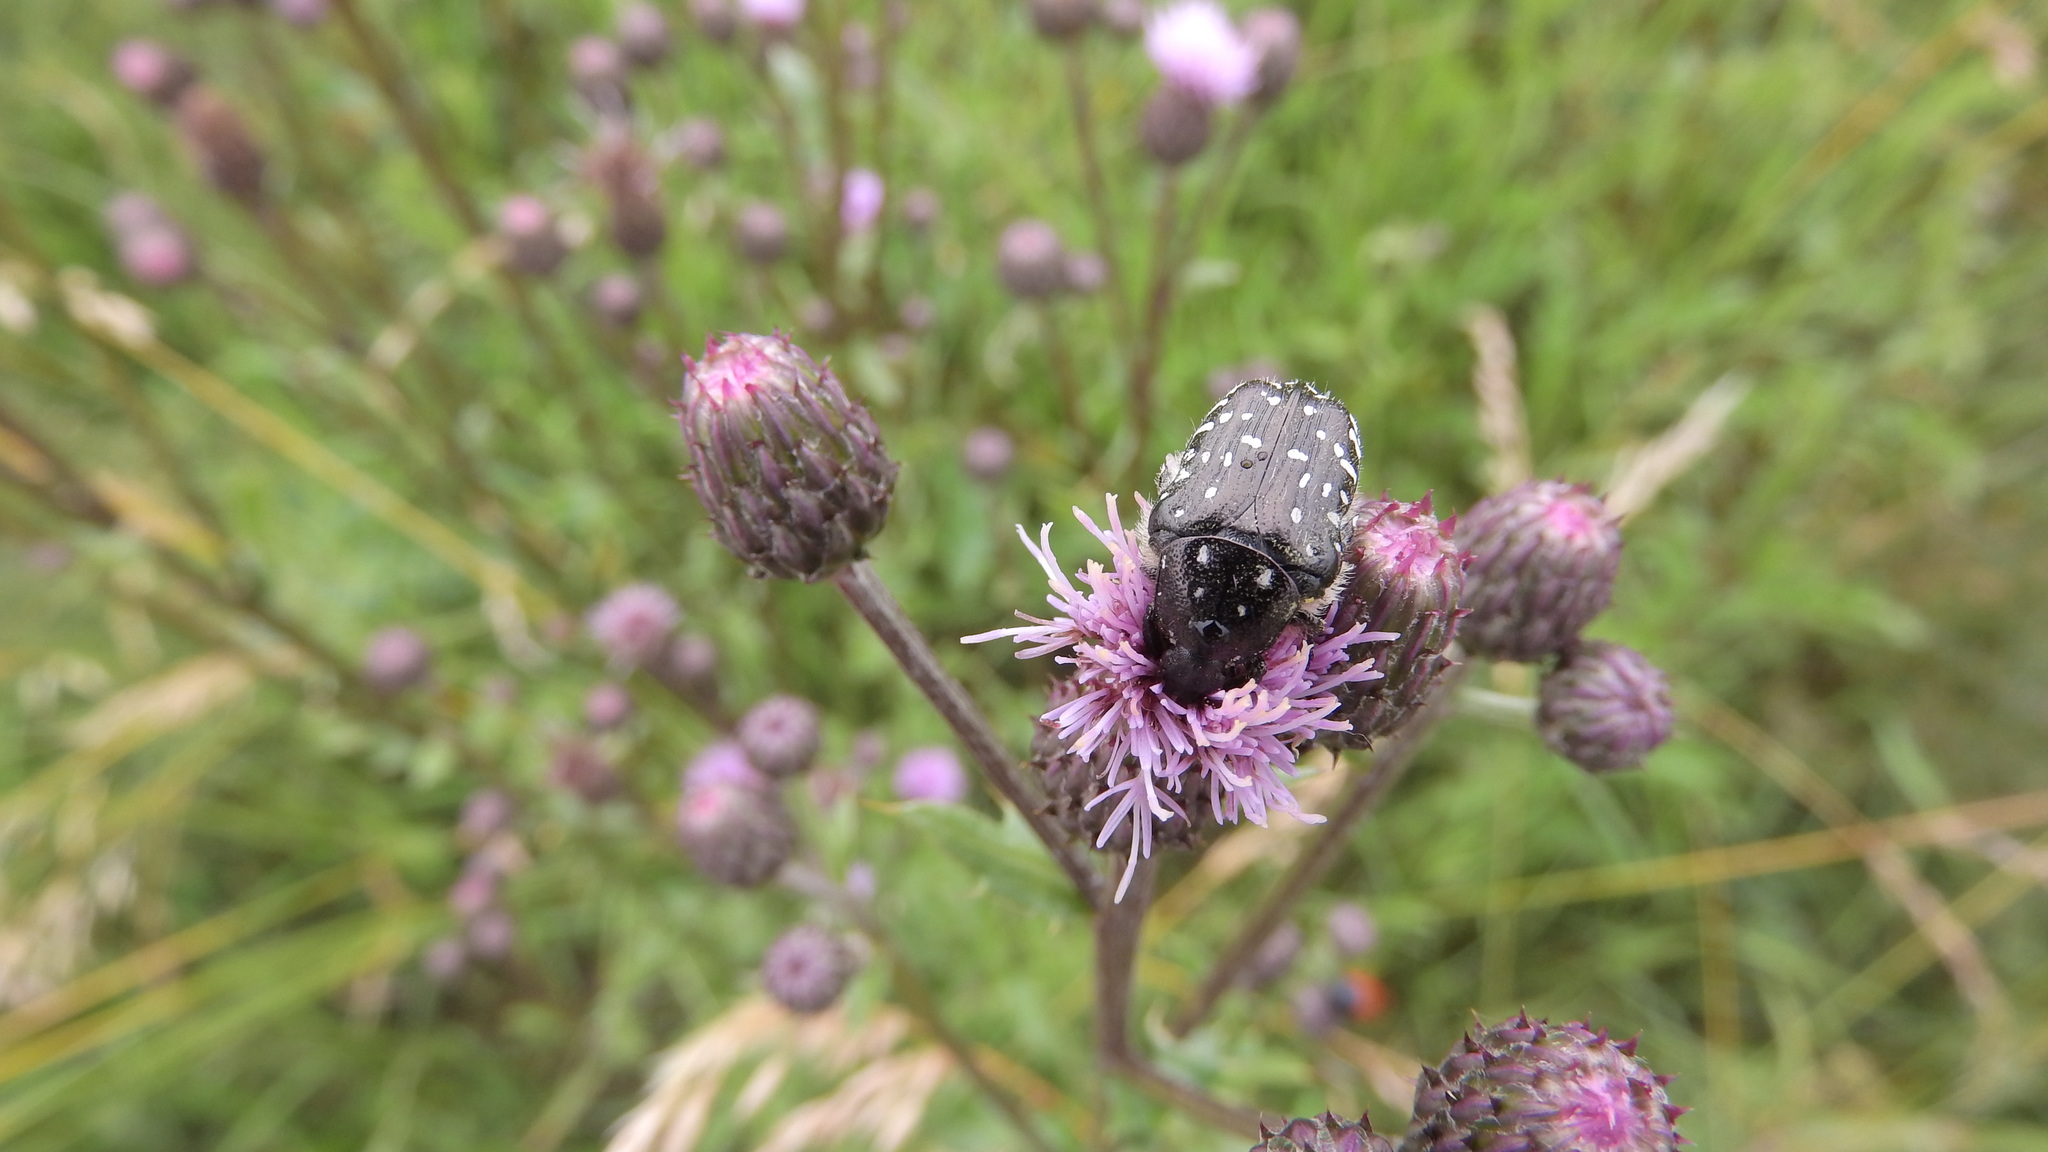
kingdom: Animalia
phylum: Arthropoda
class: Insecta
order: Coleoptera
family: Scarabaeidae
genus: Oxythyrea
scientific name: Oxythyrea funesta
